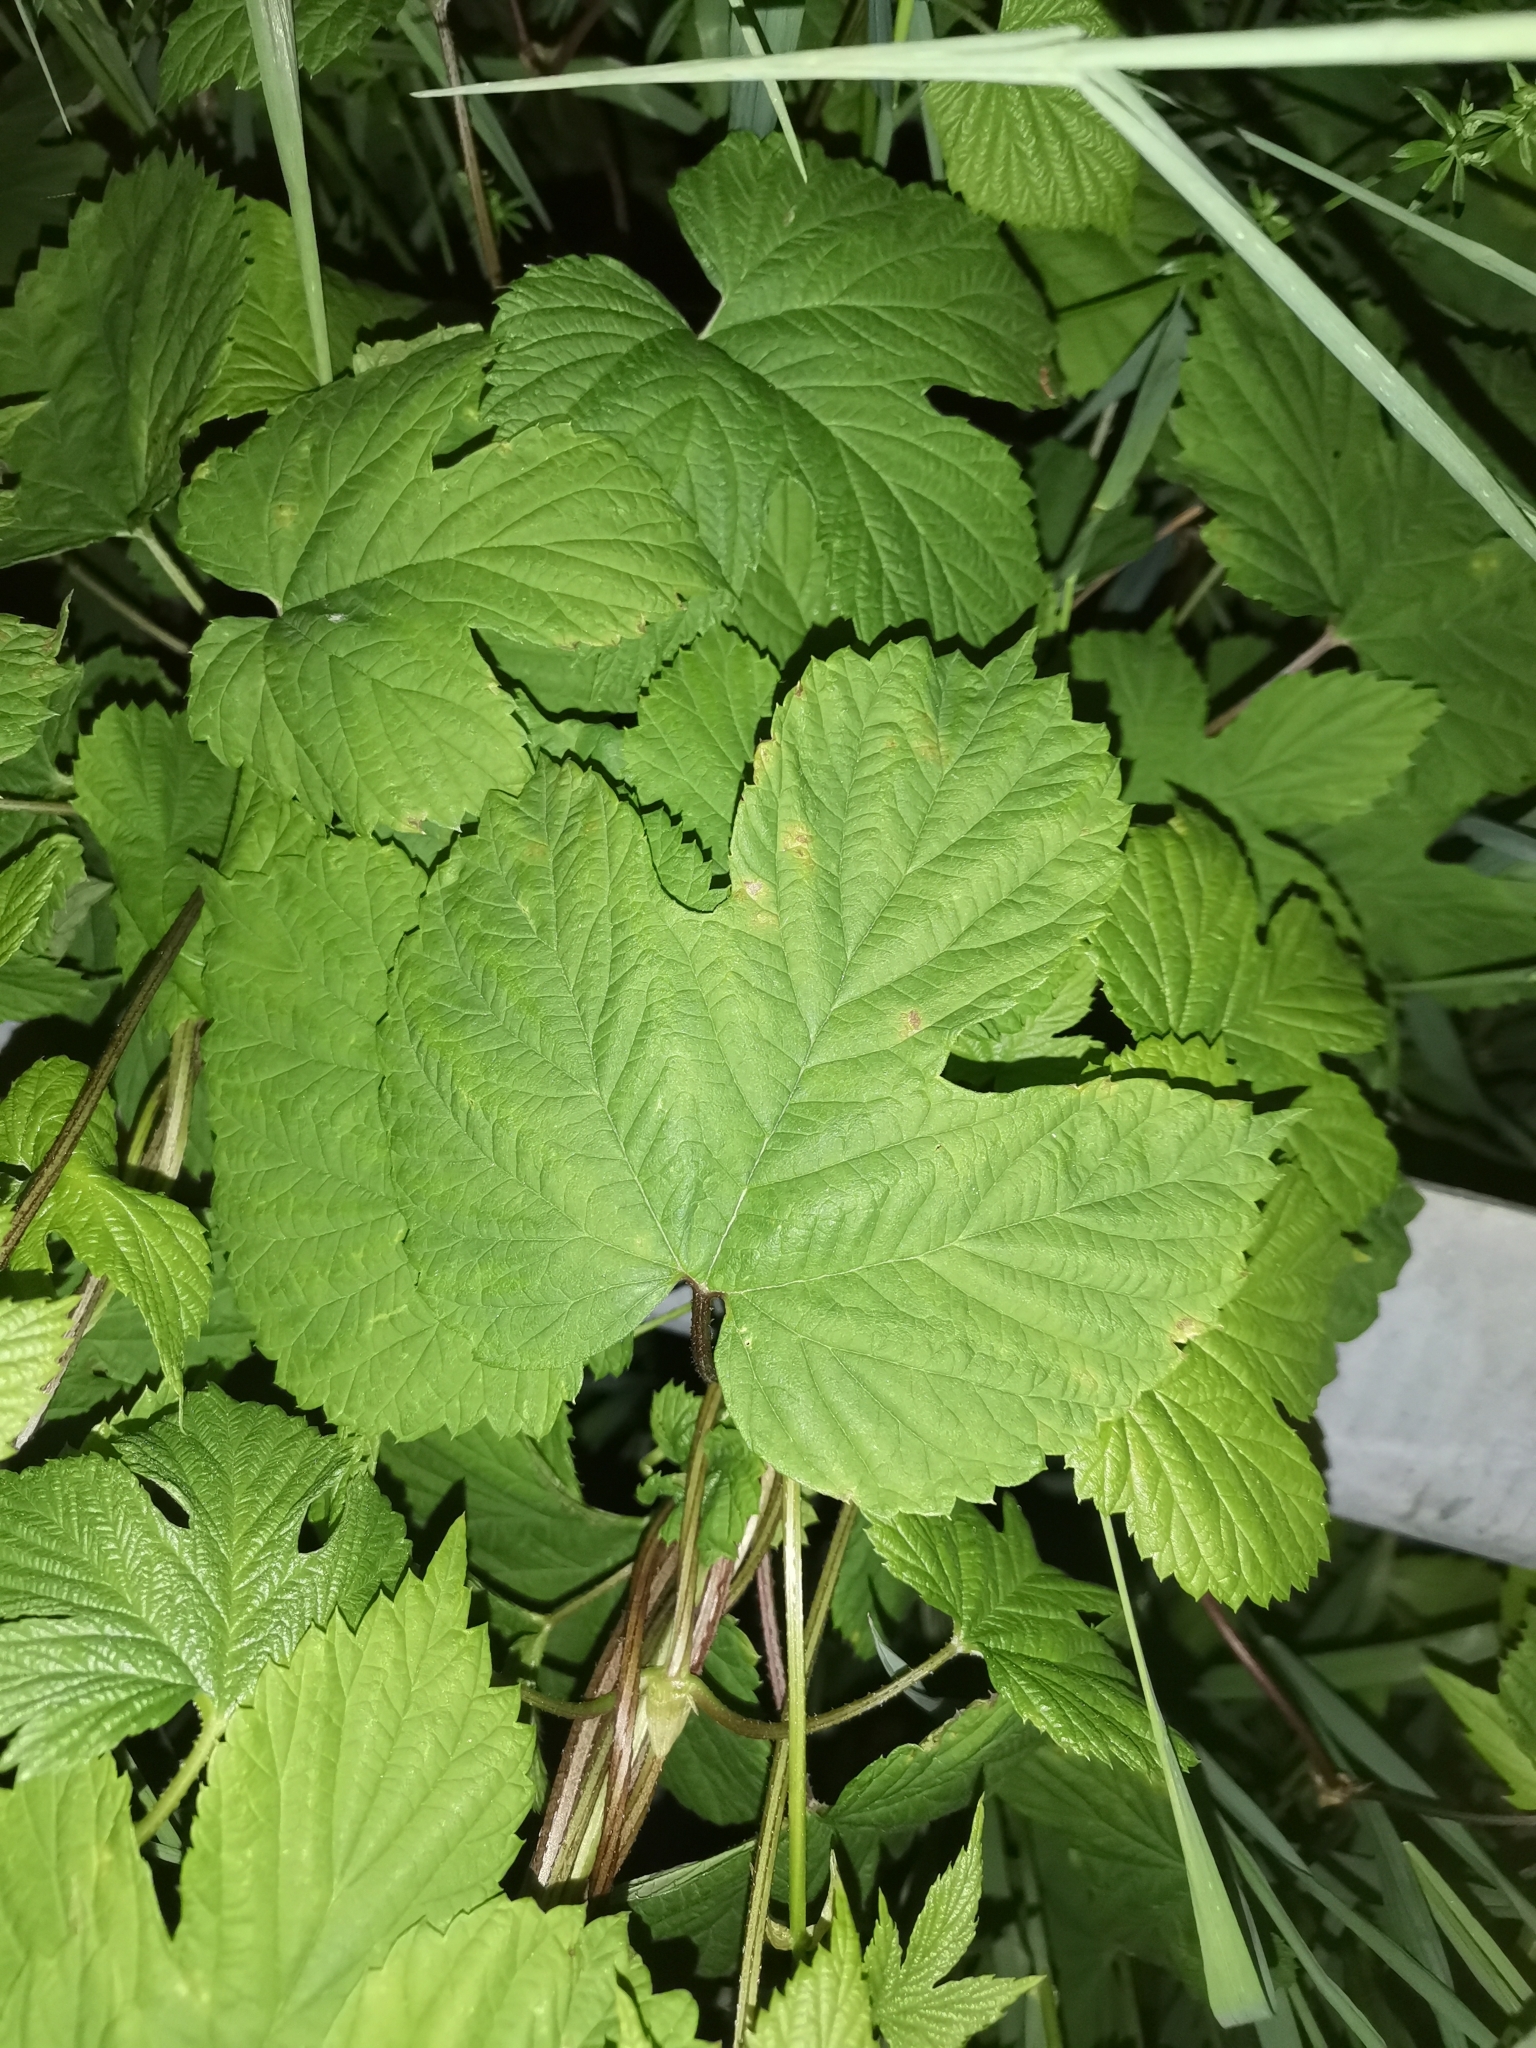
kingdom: Plantae
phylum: Tracheophyta
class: Magnoliopsida
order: Rosales
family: Cannabaceae
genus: Humulus
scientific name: Humulus lupulus
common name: Hop
